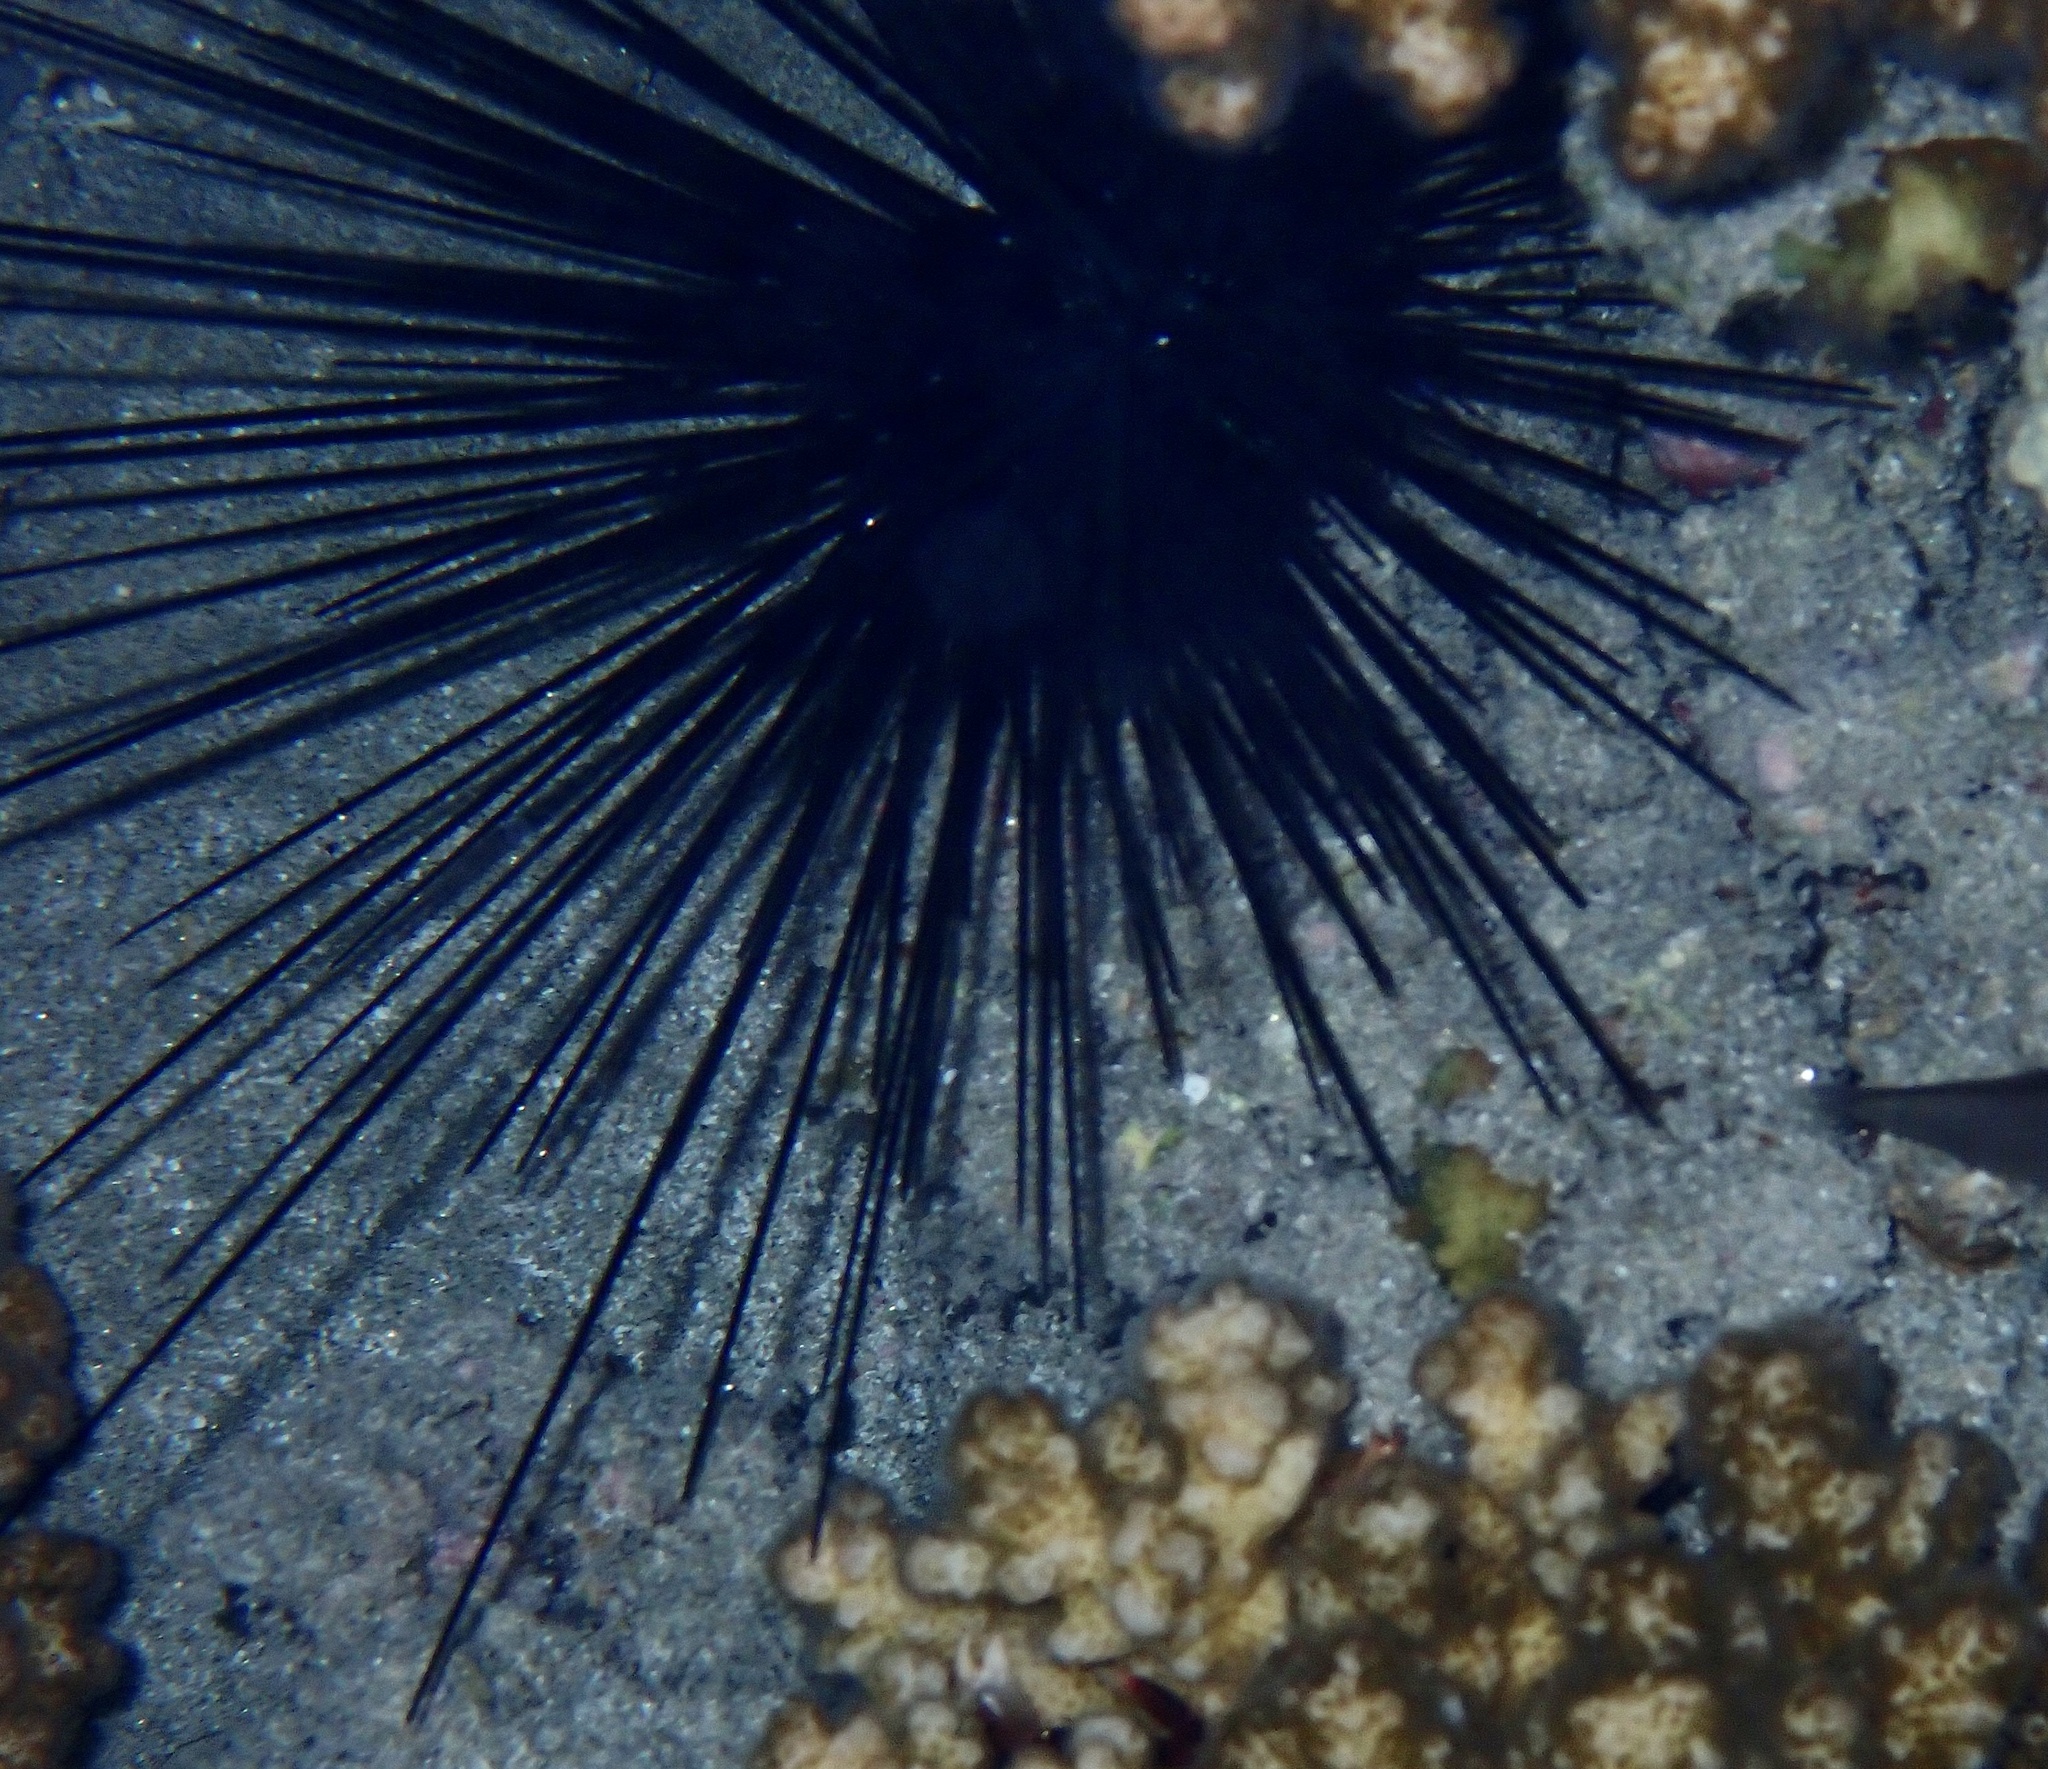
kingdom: Animalia
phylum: Echinodermata
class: Echinoidea
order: Diadematoida
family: Diadematidae
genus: Diadema
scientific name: Diadema setosum
